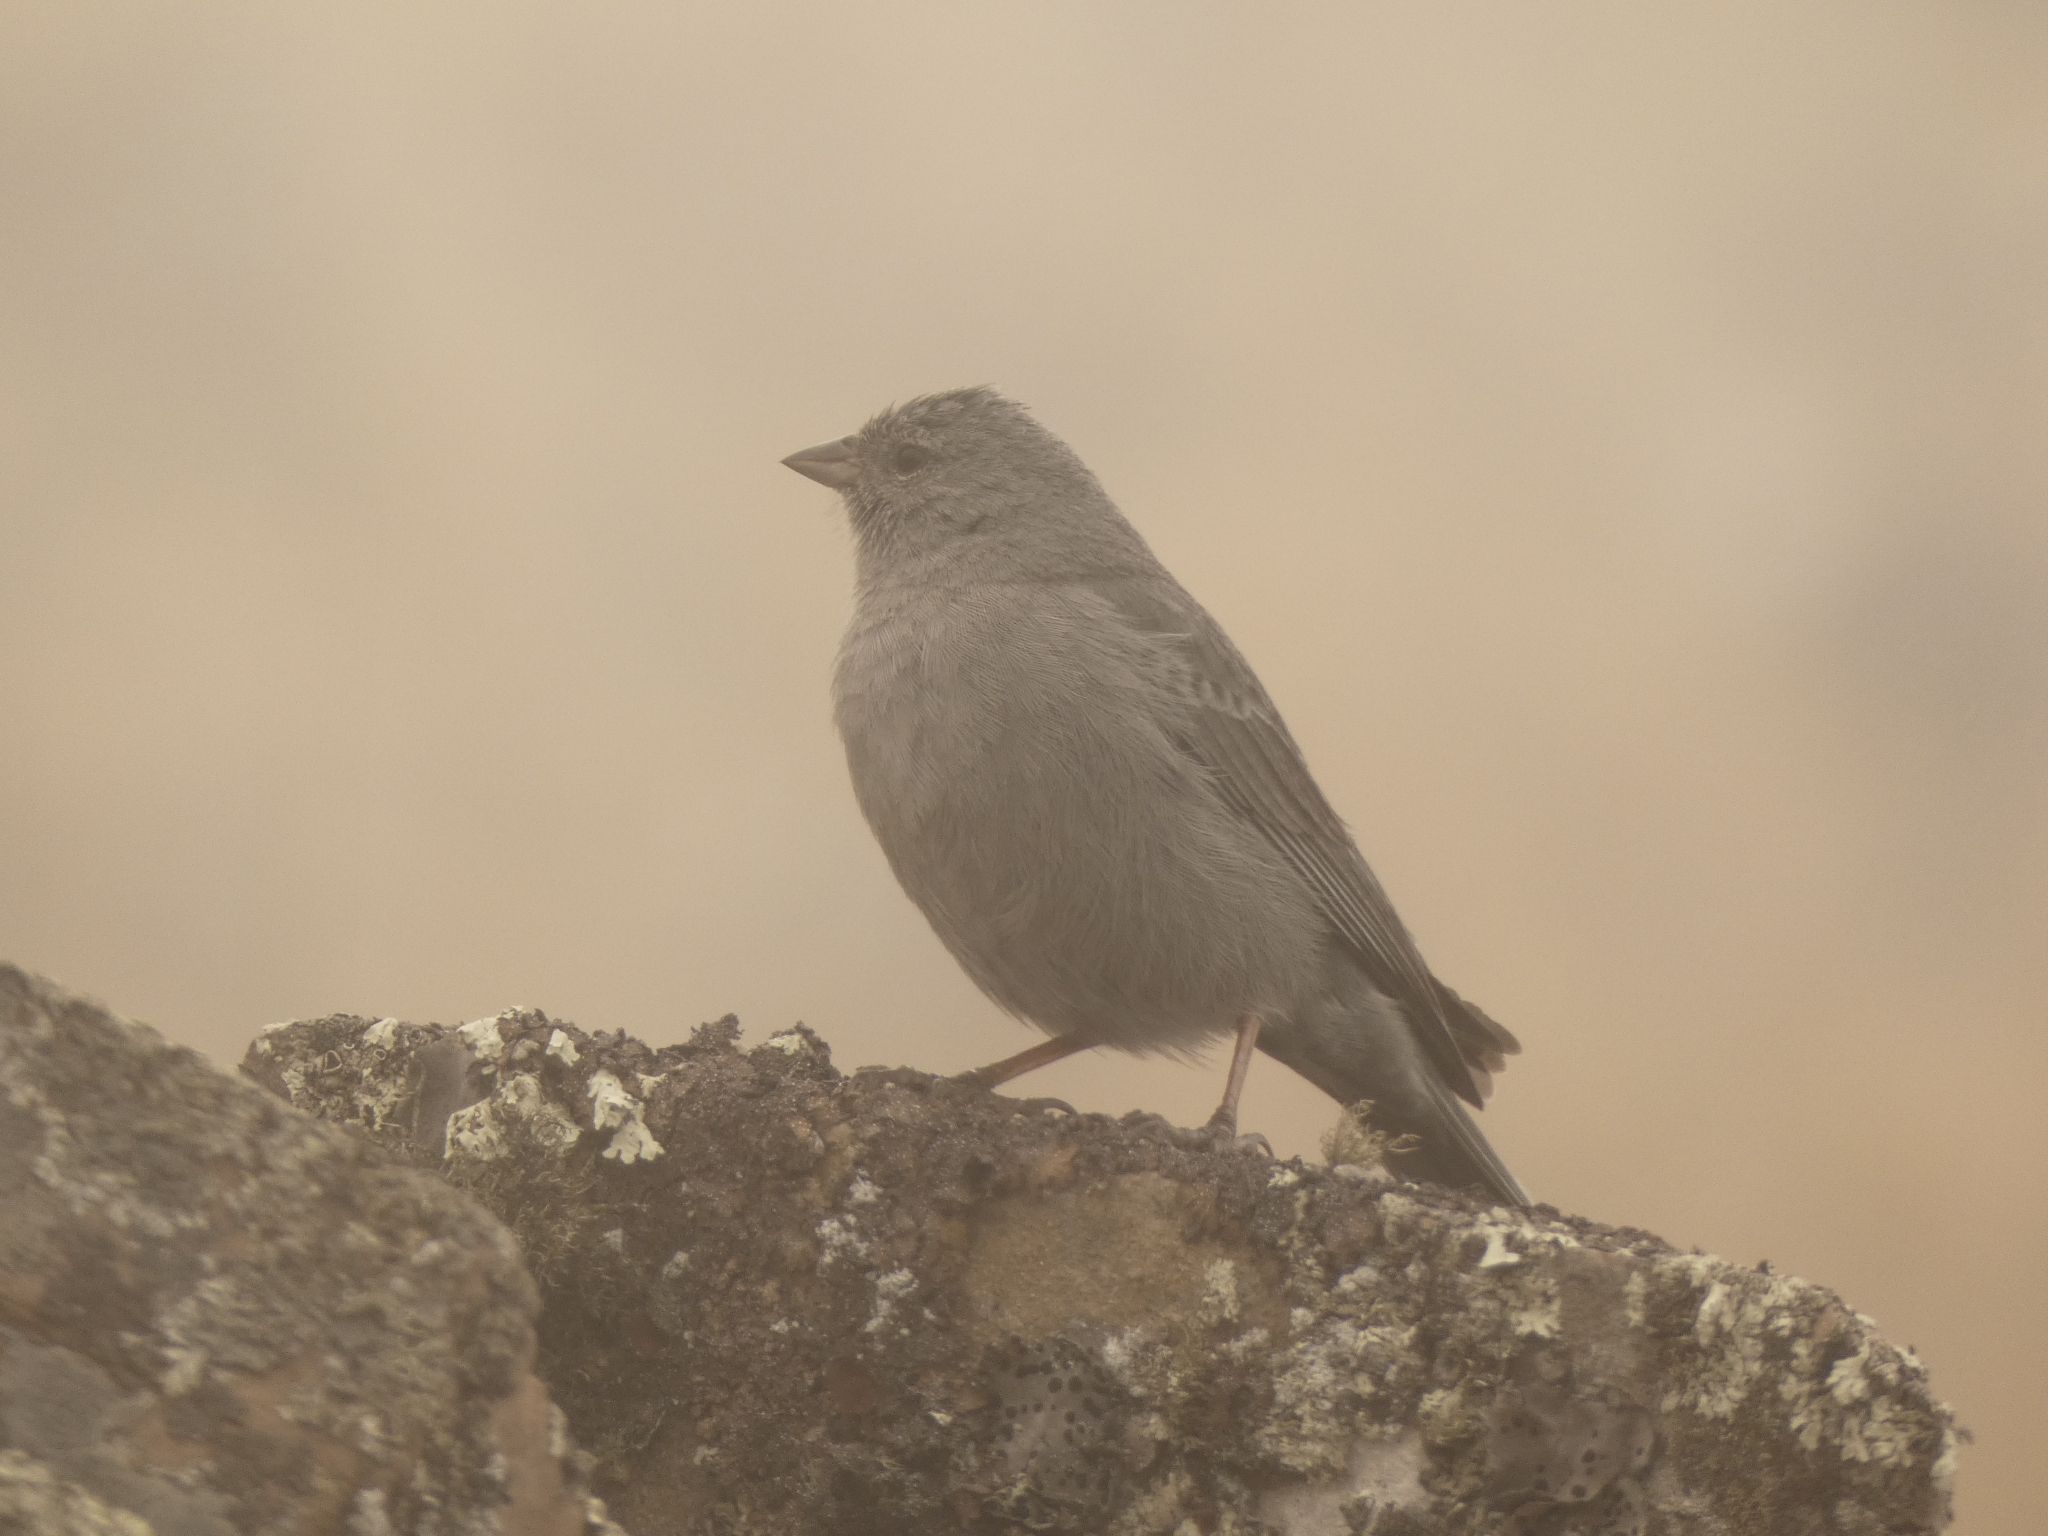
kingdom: Animalia
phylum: Chordata
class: Aves
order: Passeriformes
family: Thraupidae
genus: Geospizopsis
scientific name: Geospizopsis unicolor
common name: Plumbeous sierra-finch
